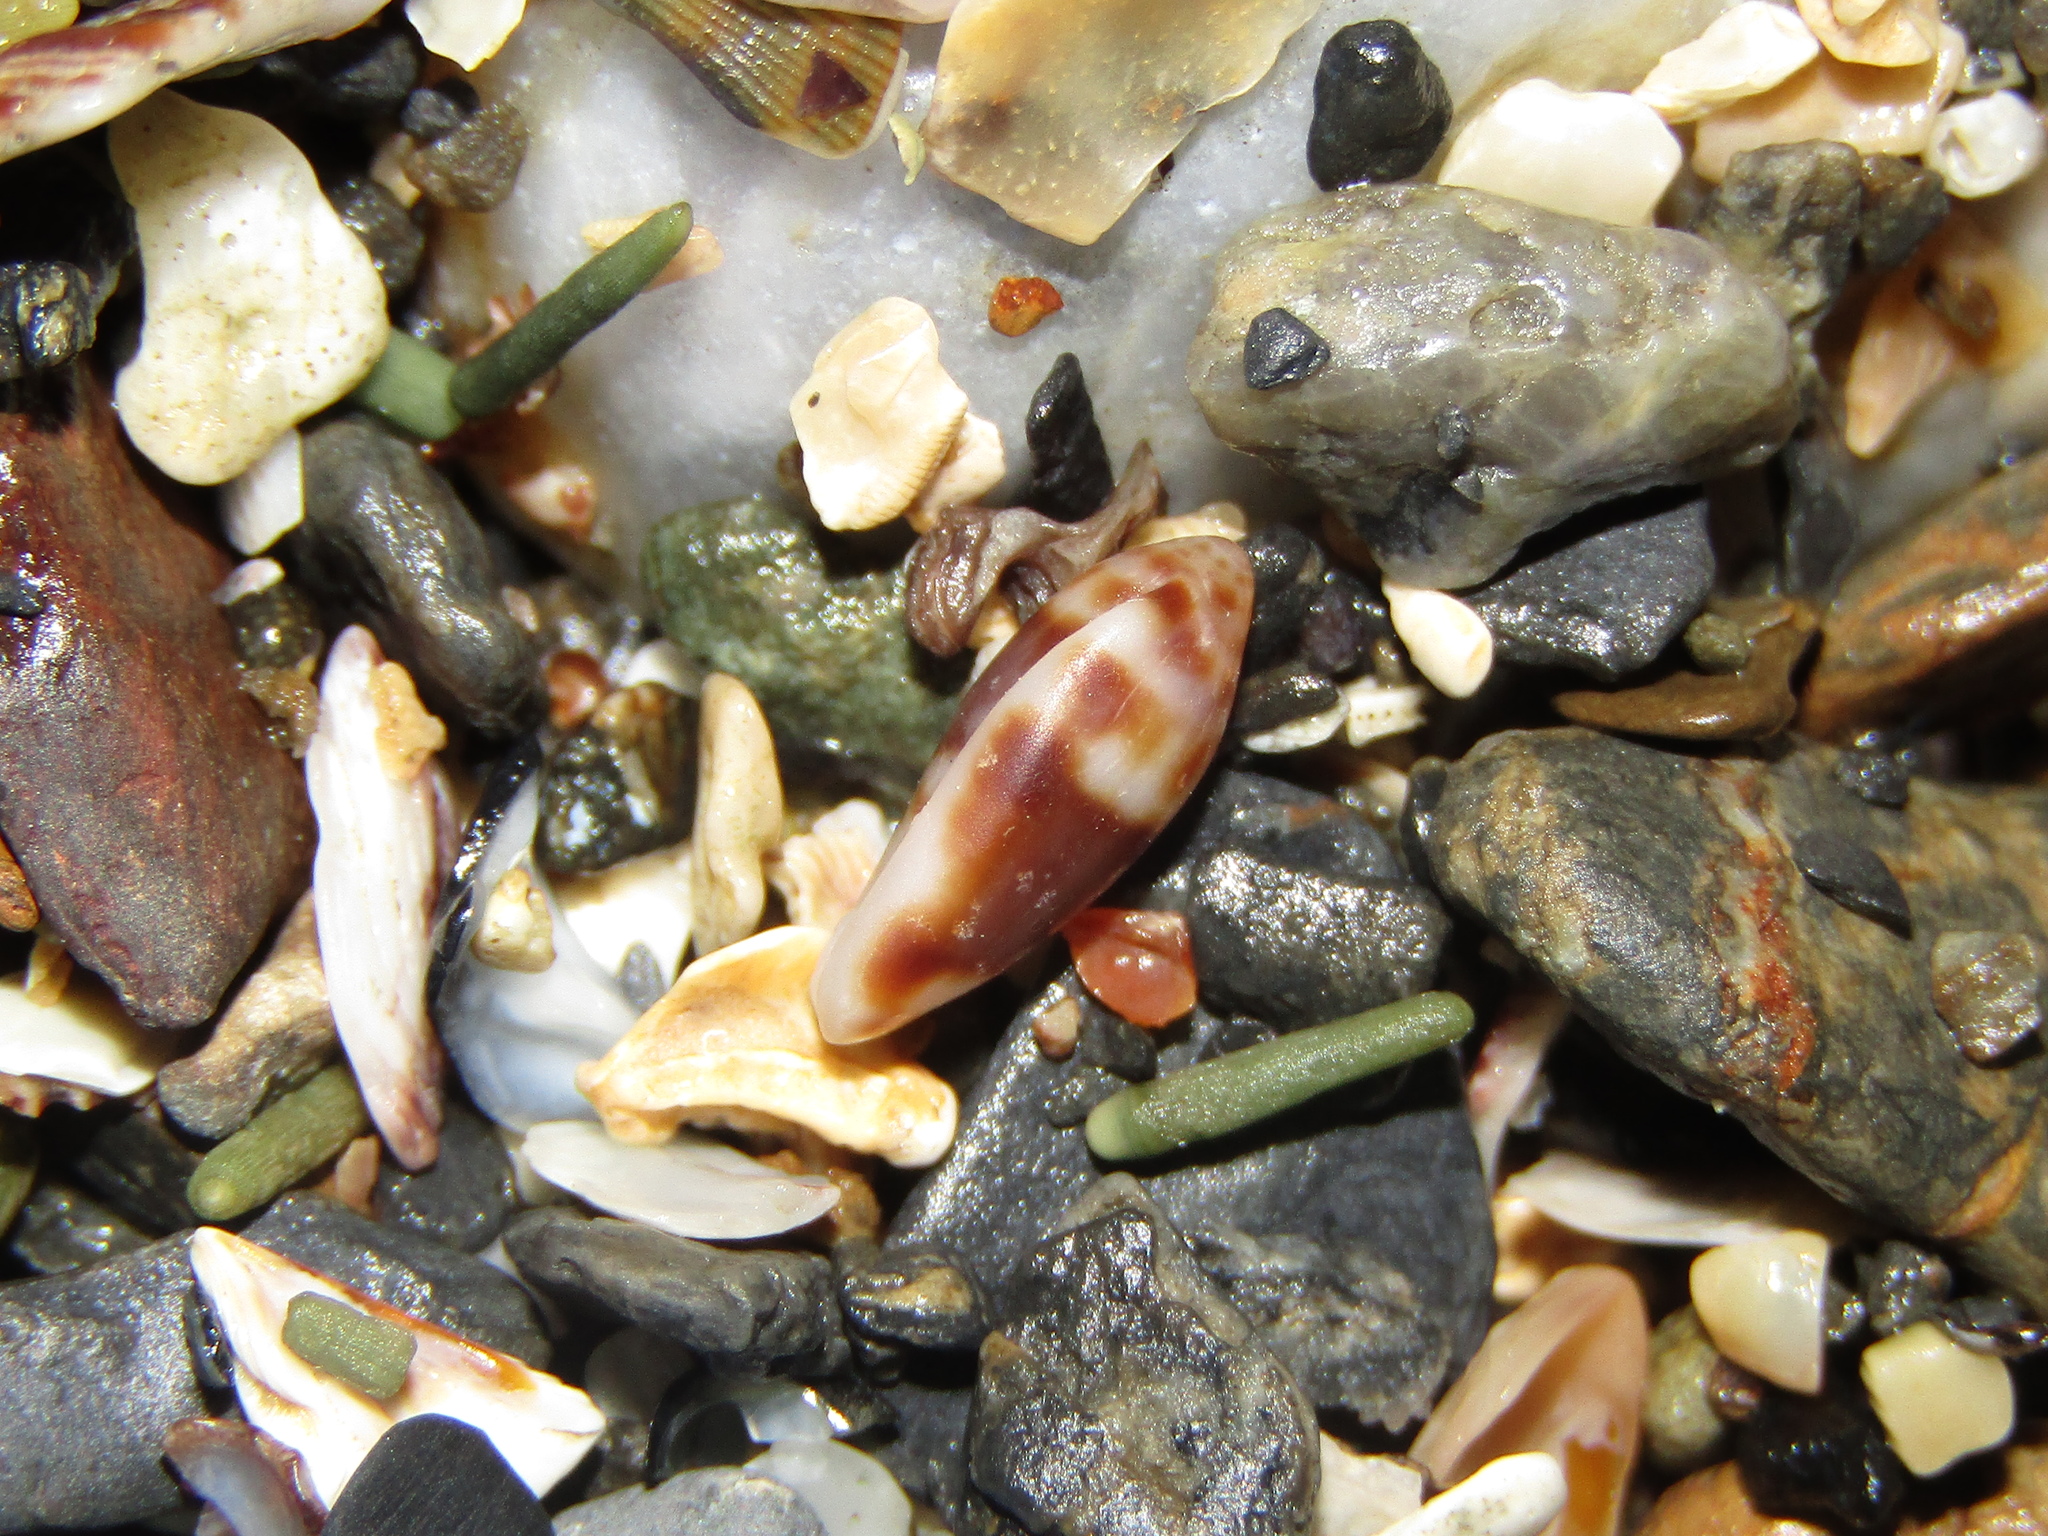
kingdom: Animalia
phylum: Mollusca
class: Gastropoda
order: Neogastropoda
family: Marginellidae
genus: Serrata
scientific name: Serrata fasciata
